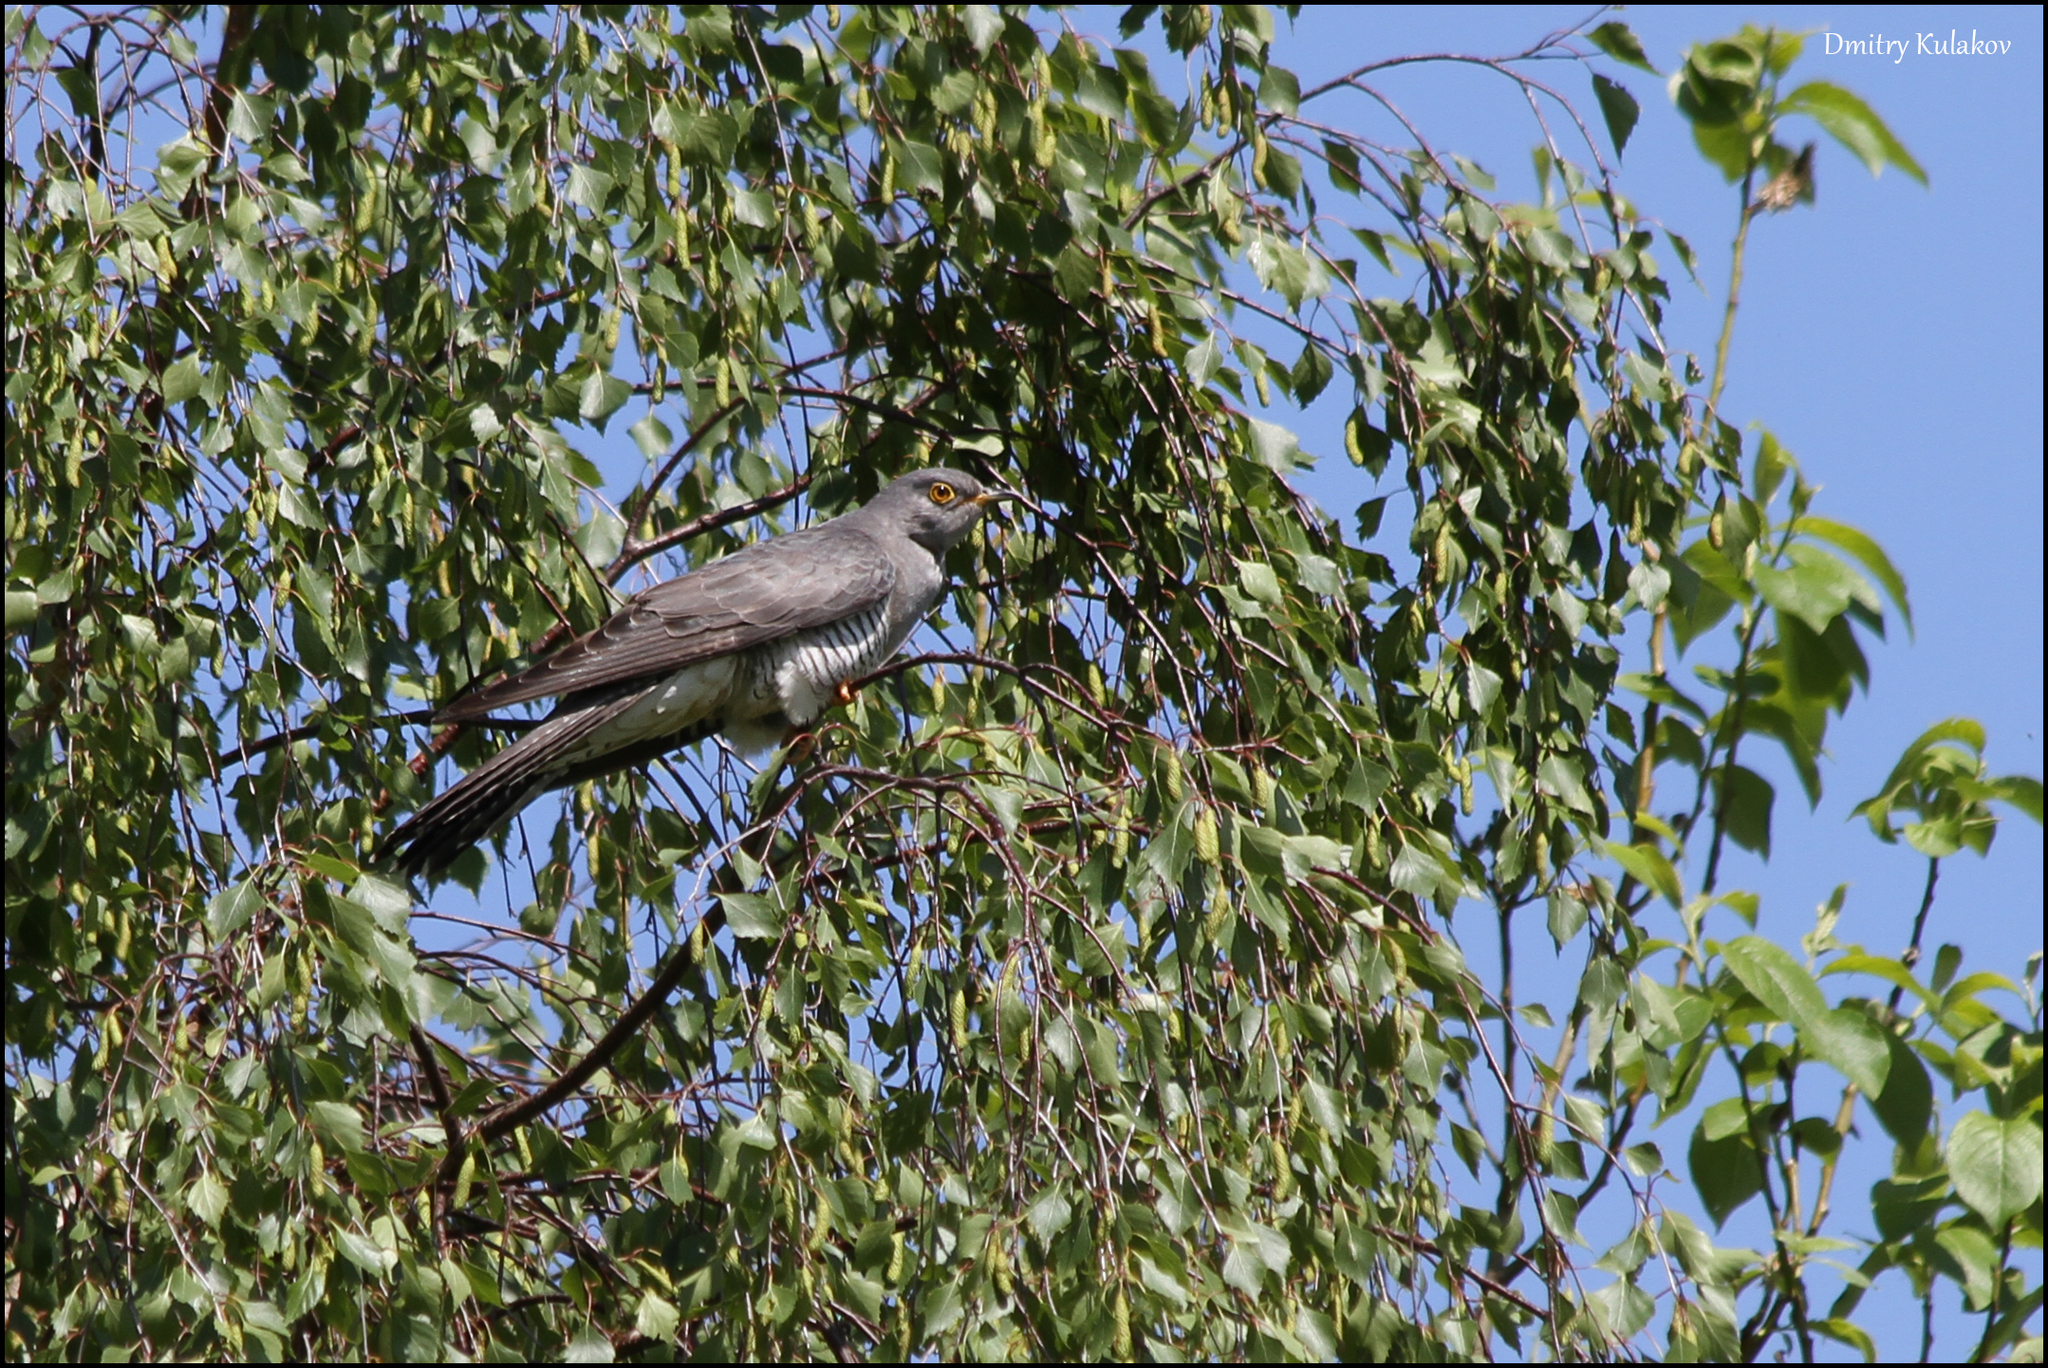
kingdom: Animalia
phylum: Chordata
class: Aves
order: Cuculiformes
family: Cuculidae
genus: Cuculus
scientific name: Cuculus canorus
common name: Common cuckoo
